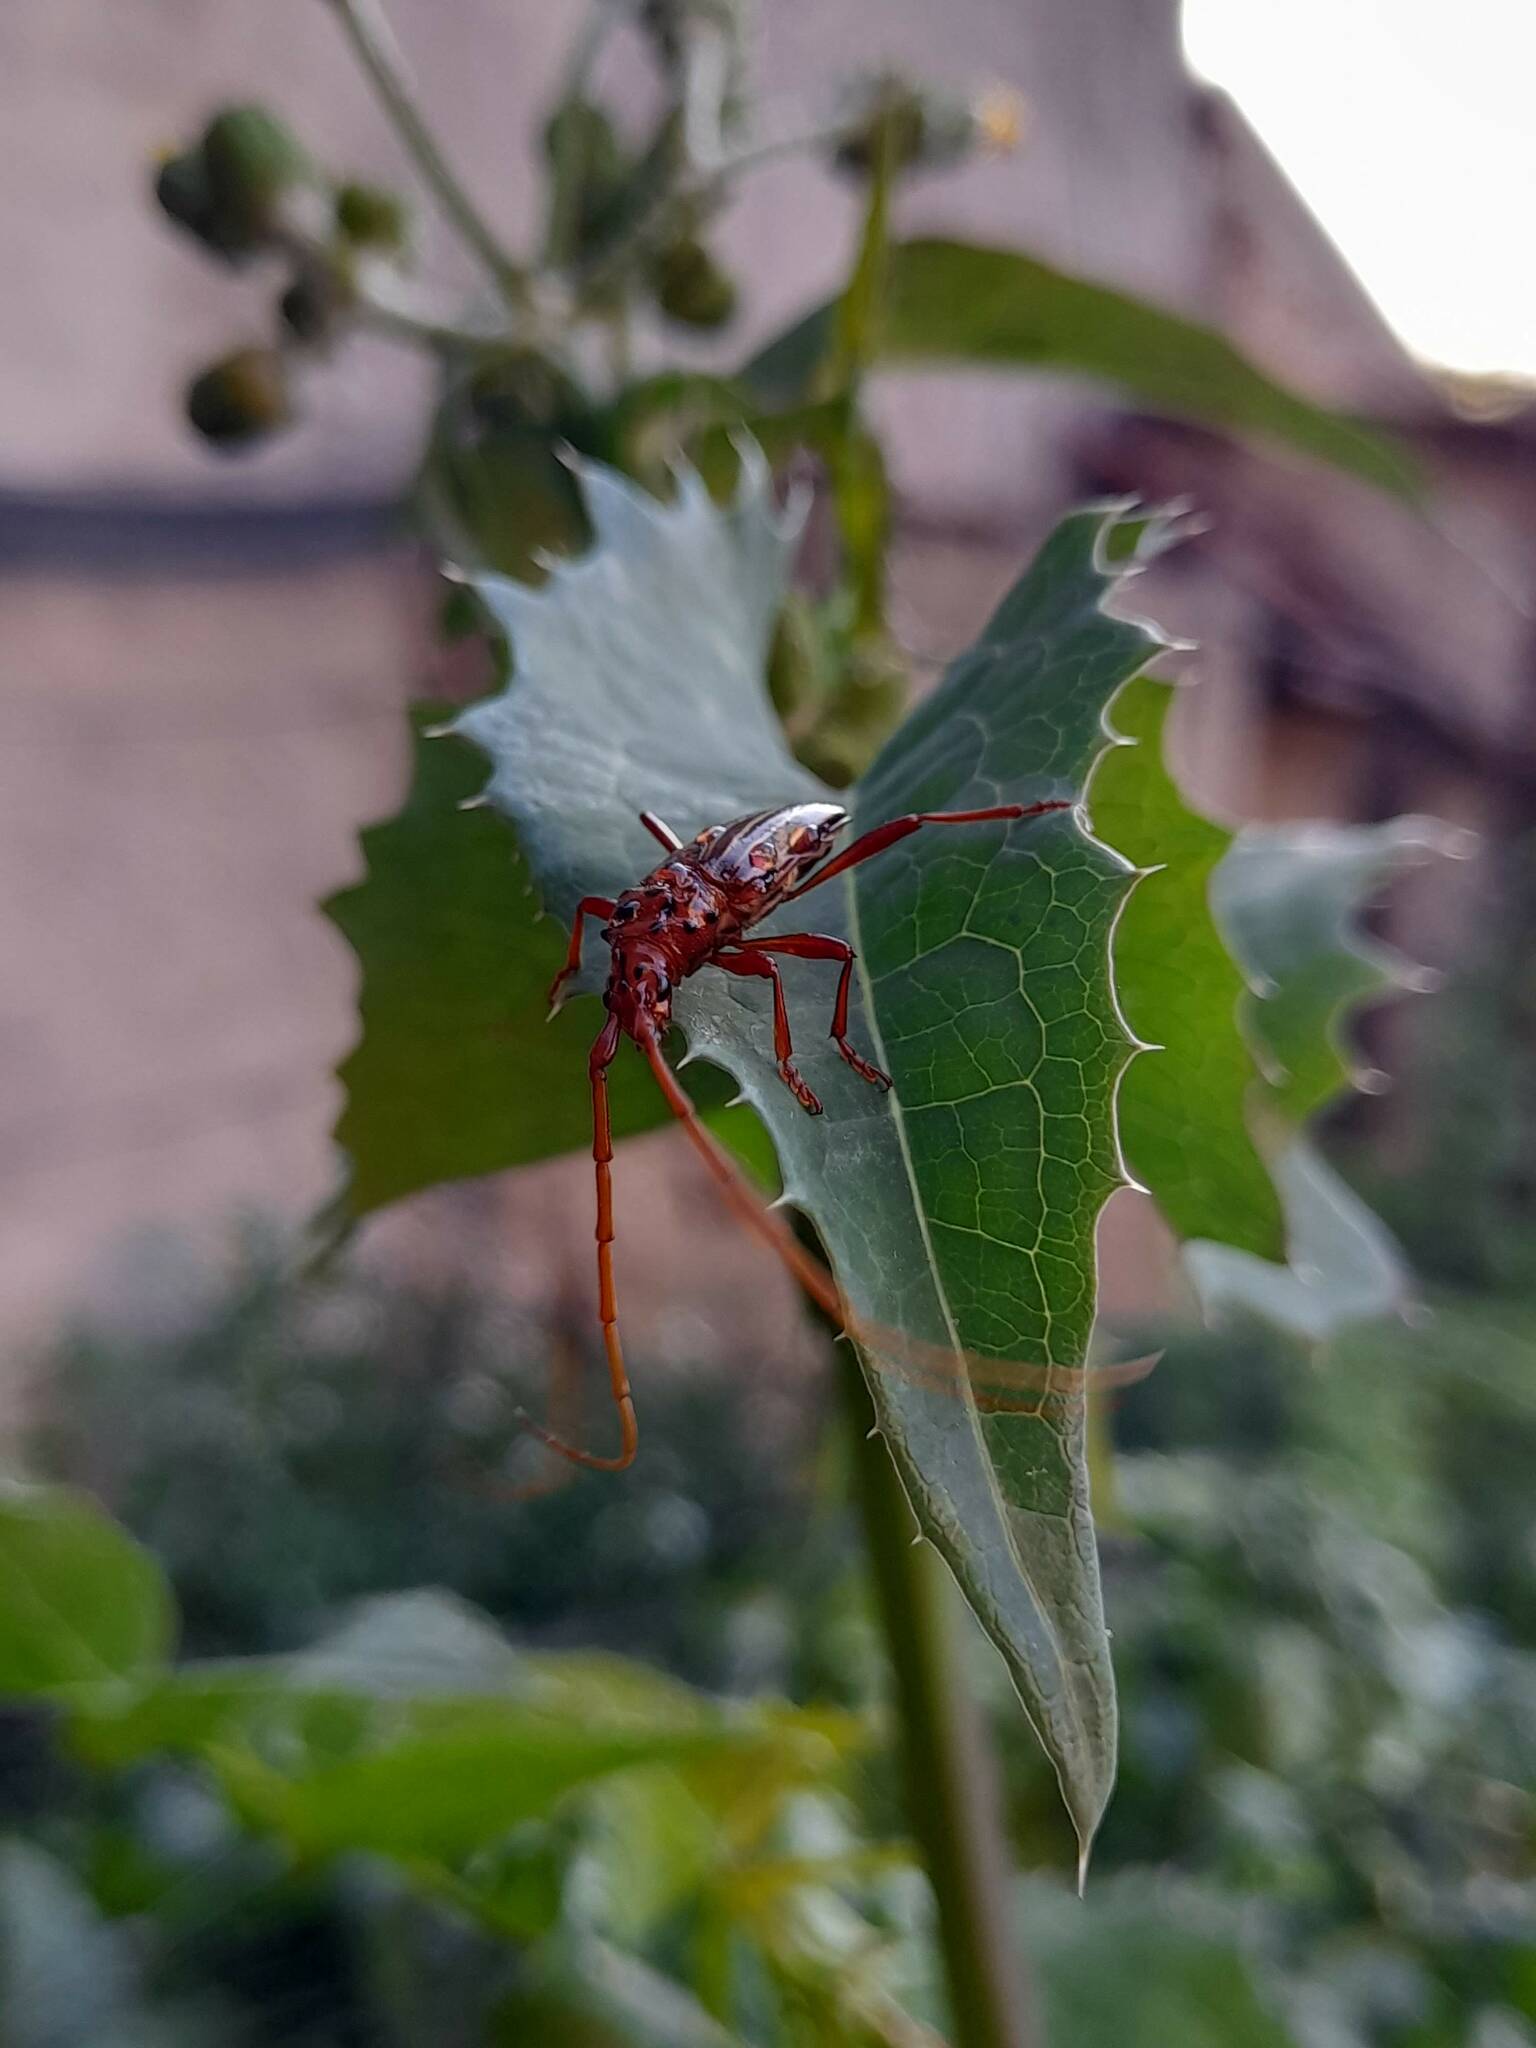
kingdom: Animalia
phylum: Arthropoda
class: Insecta
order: Coleoptera
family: Cerambycidae
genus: Chydarteres
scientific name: Chydarteres striatus
